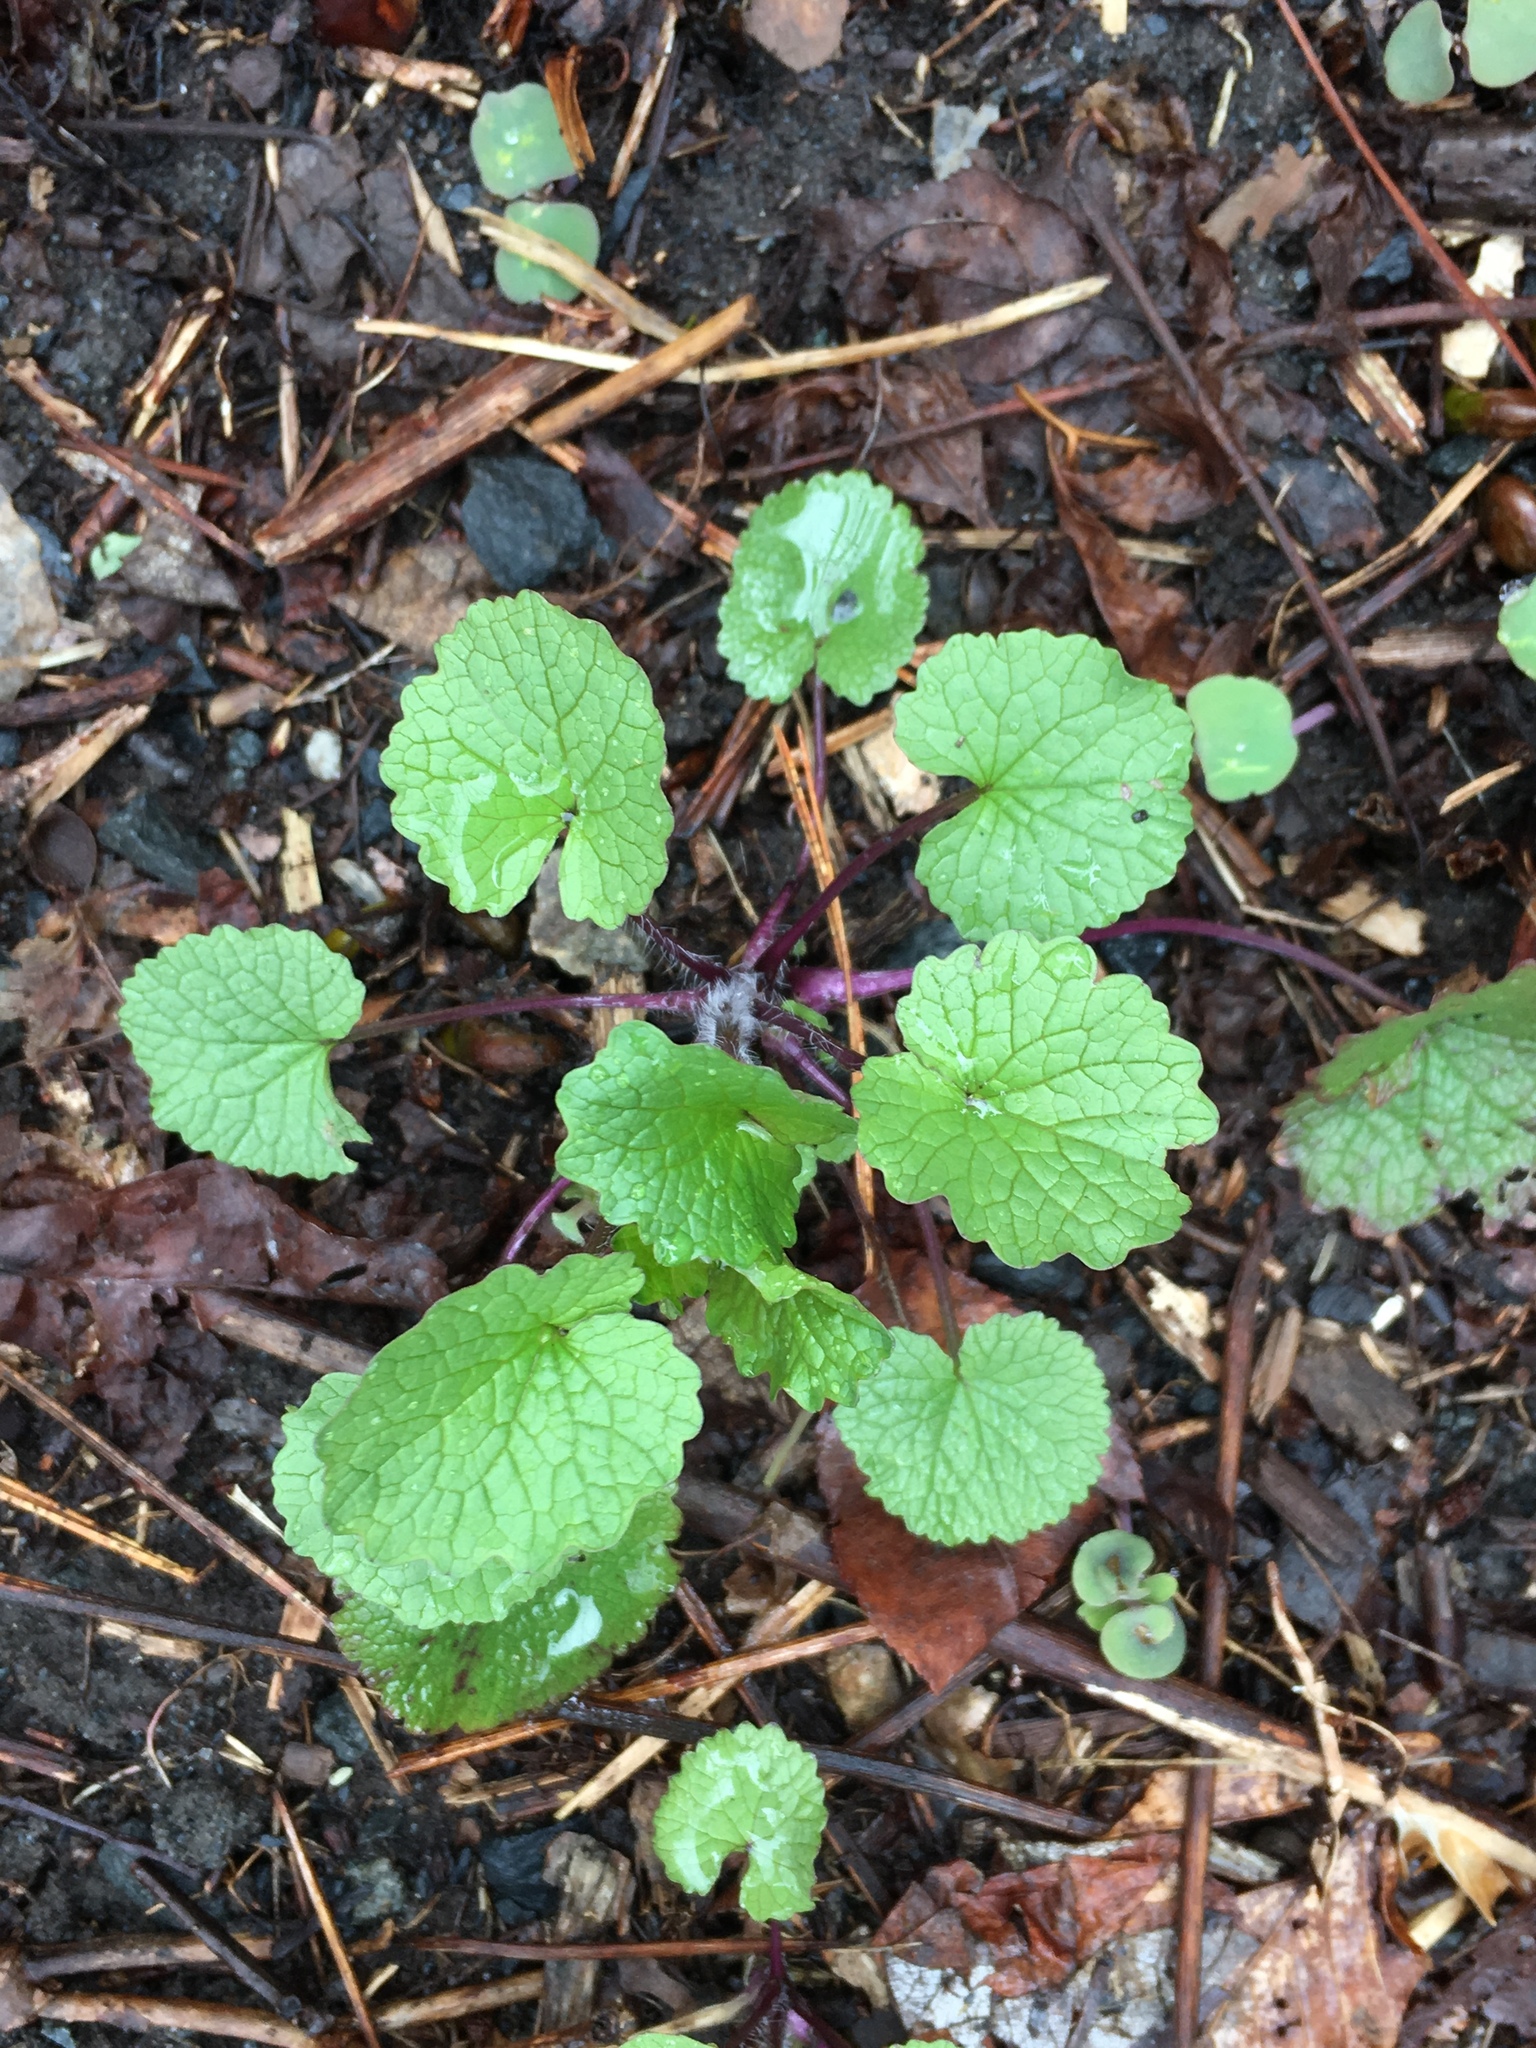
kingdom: Plantae
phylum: Tracheophyta
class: Magnoliopsida
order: Brassicales
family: Brassicaceae
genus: Alliaria
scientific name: Alliaria petiolata
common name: Garlic mustard
